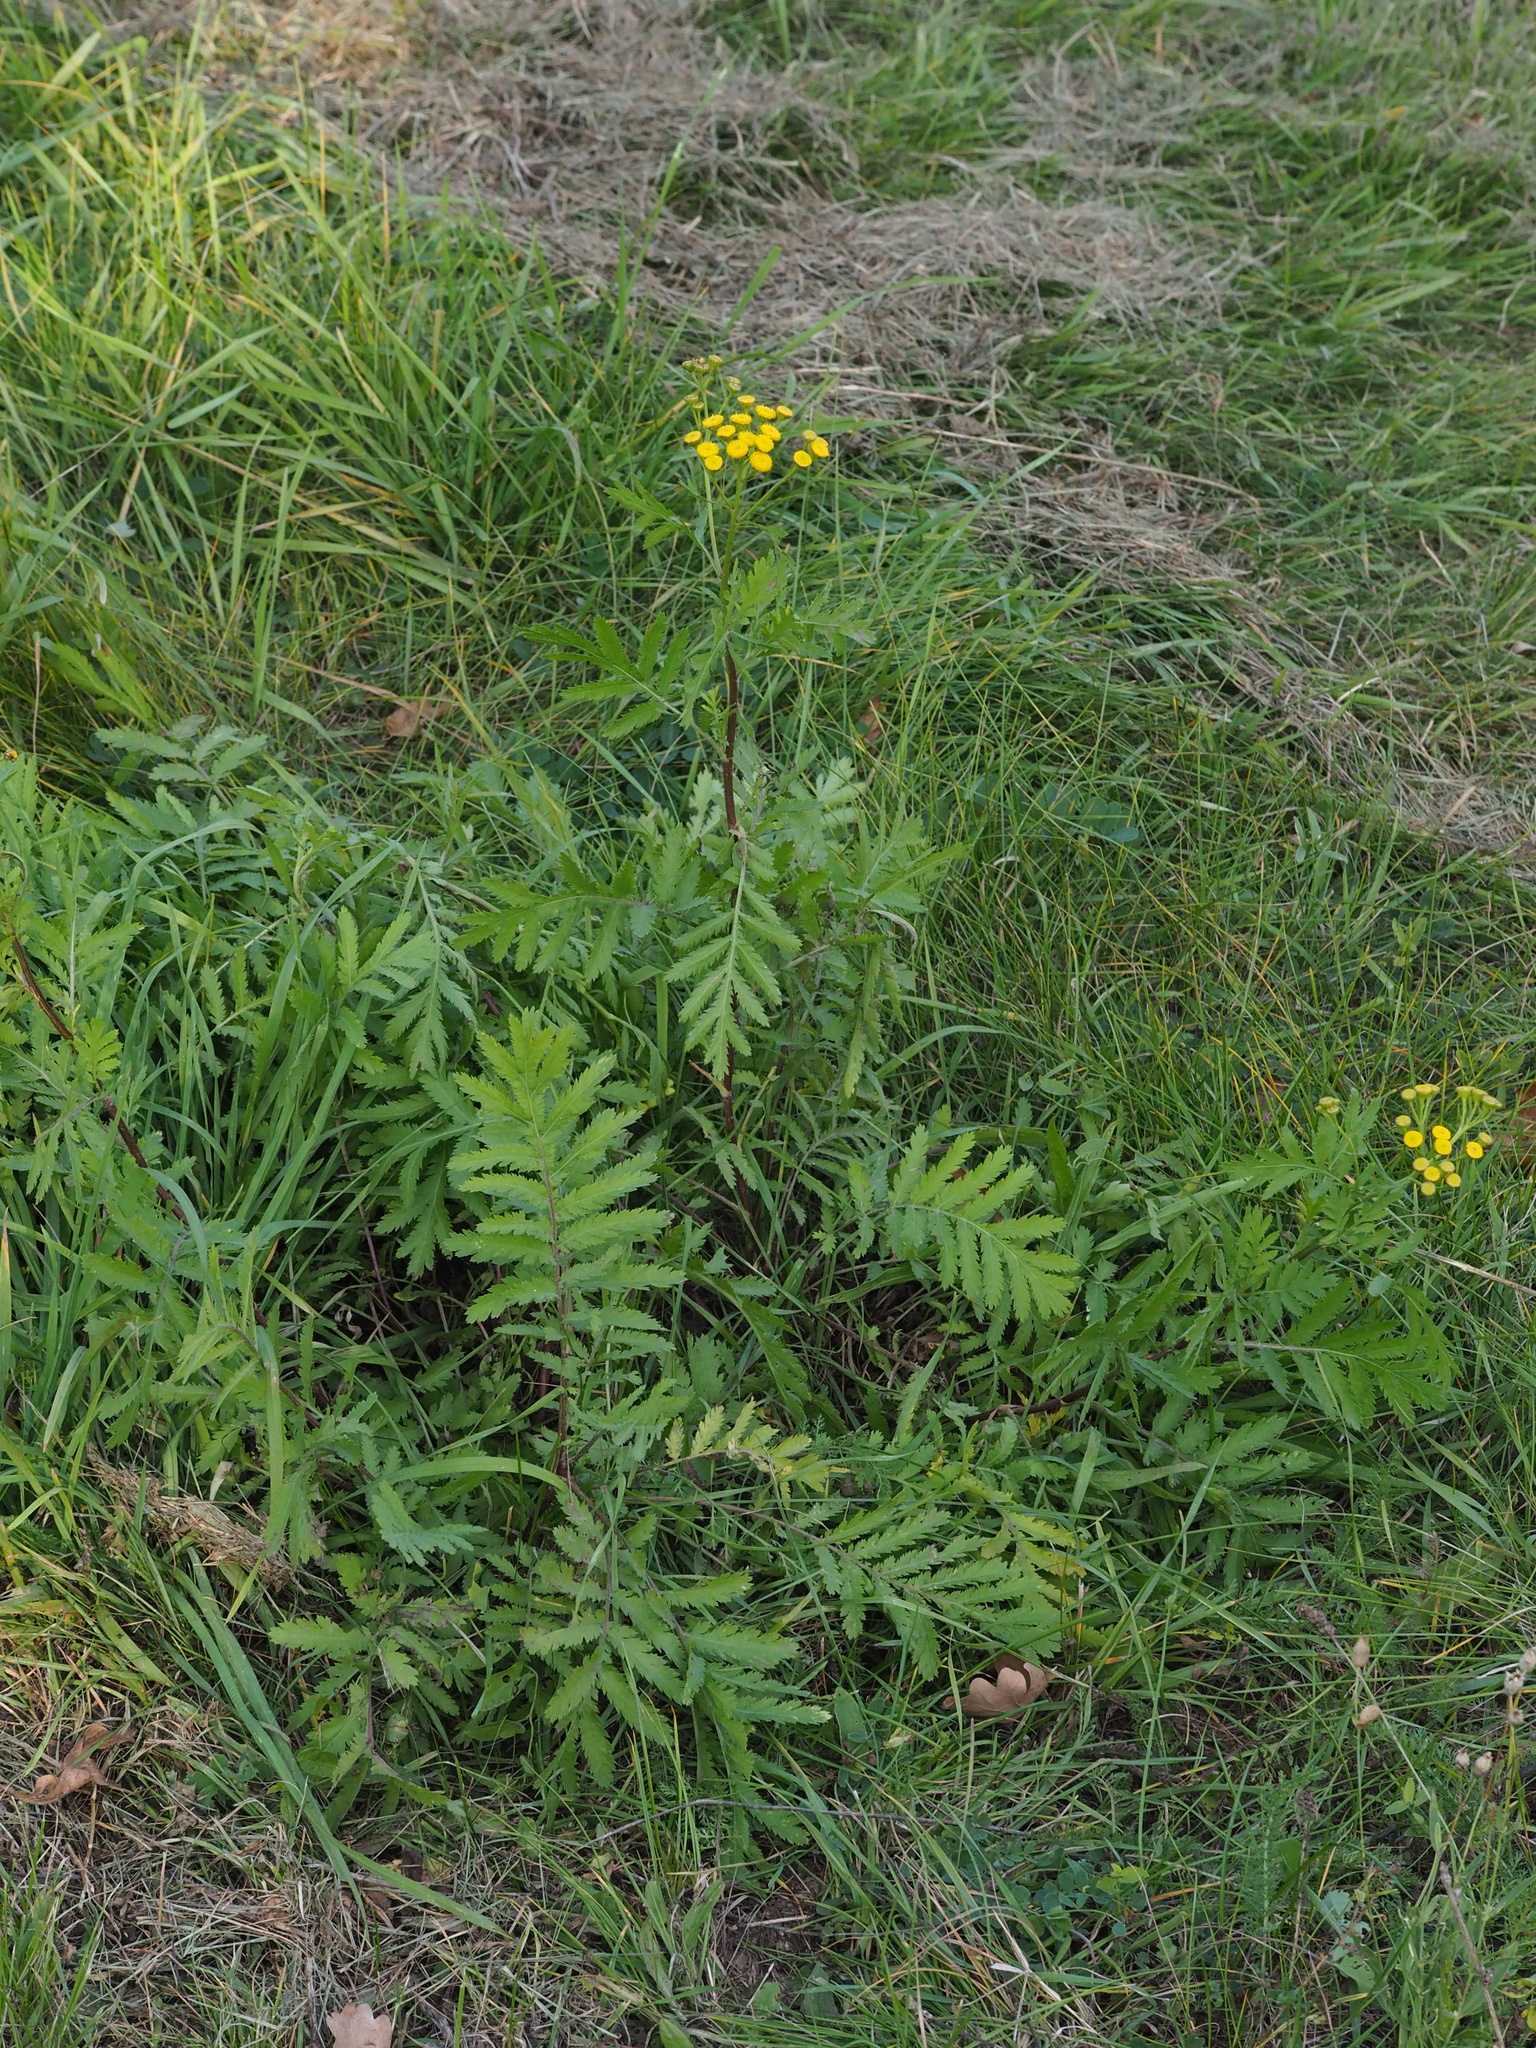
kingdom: Plantae
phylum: Tracheophyta
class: Magnoliopsida
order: Asterales
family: Asteraceae
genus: Tanacetum
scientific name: Tanacetum vulgare
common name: Common tansy
